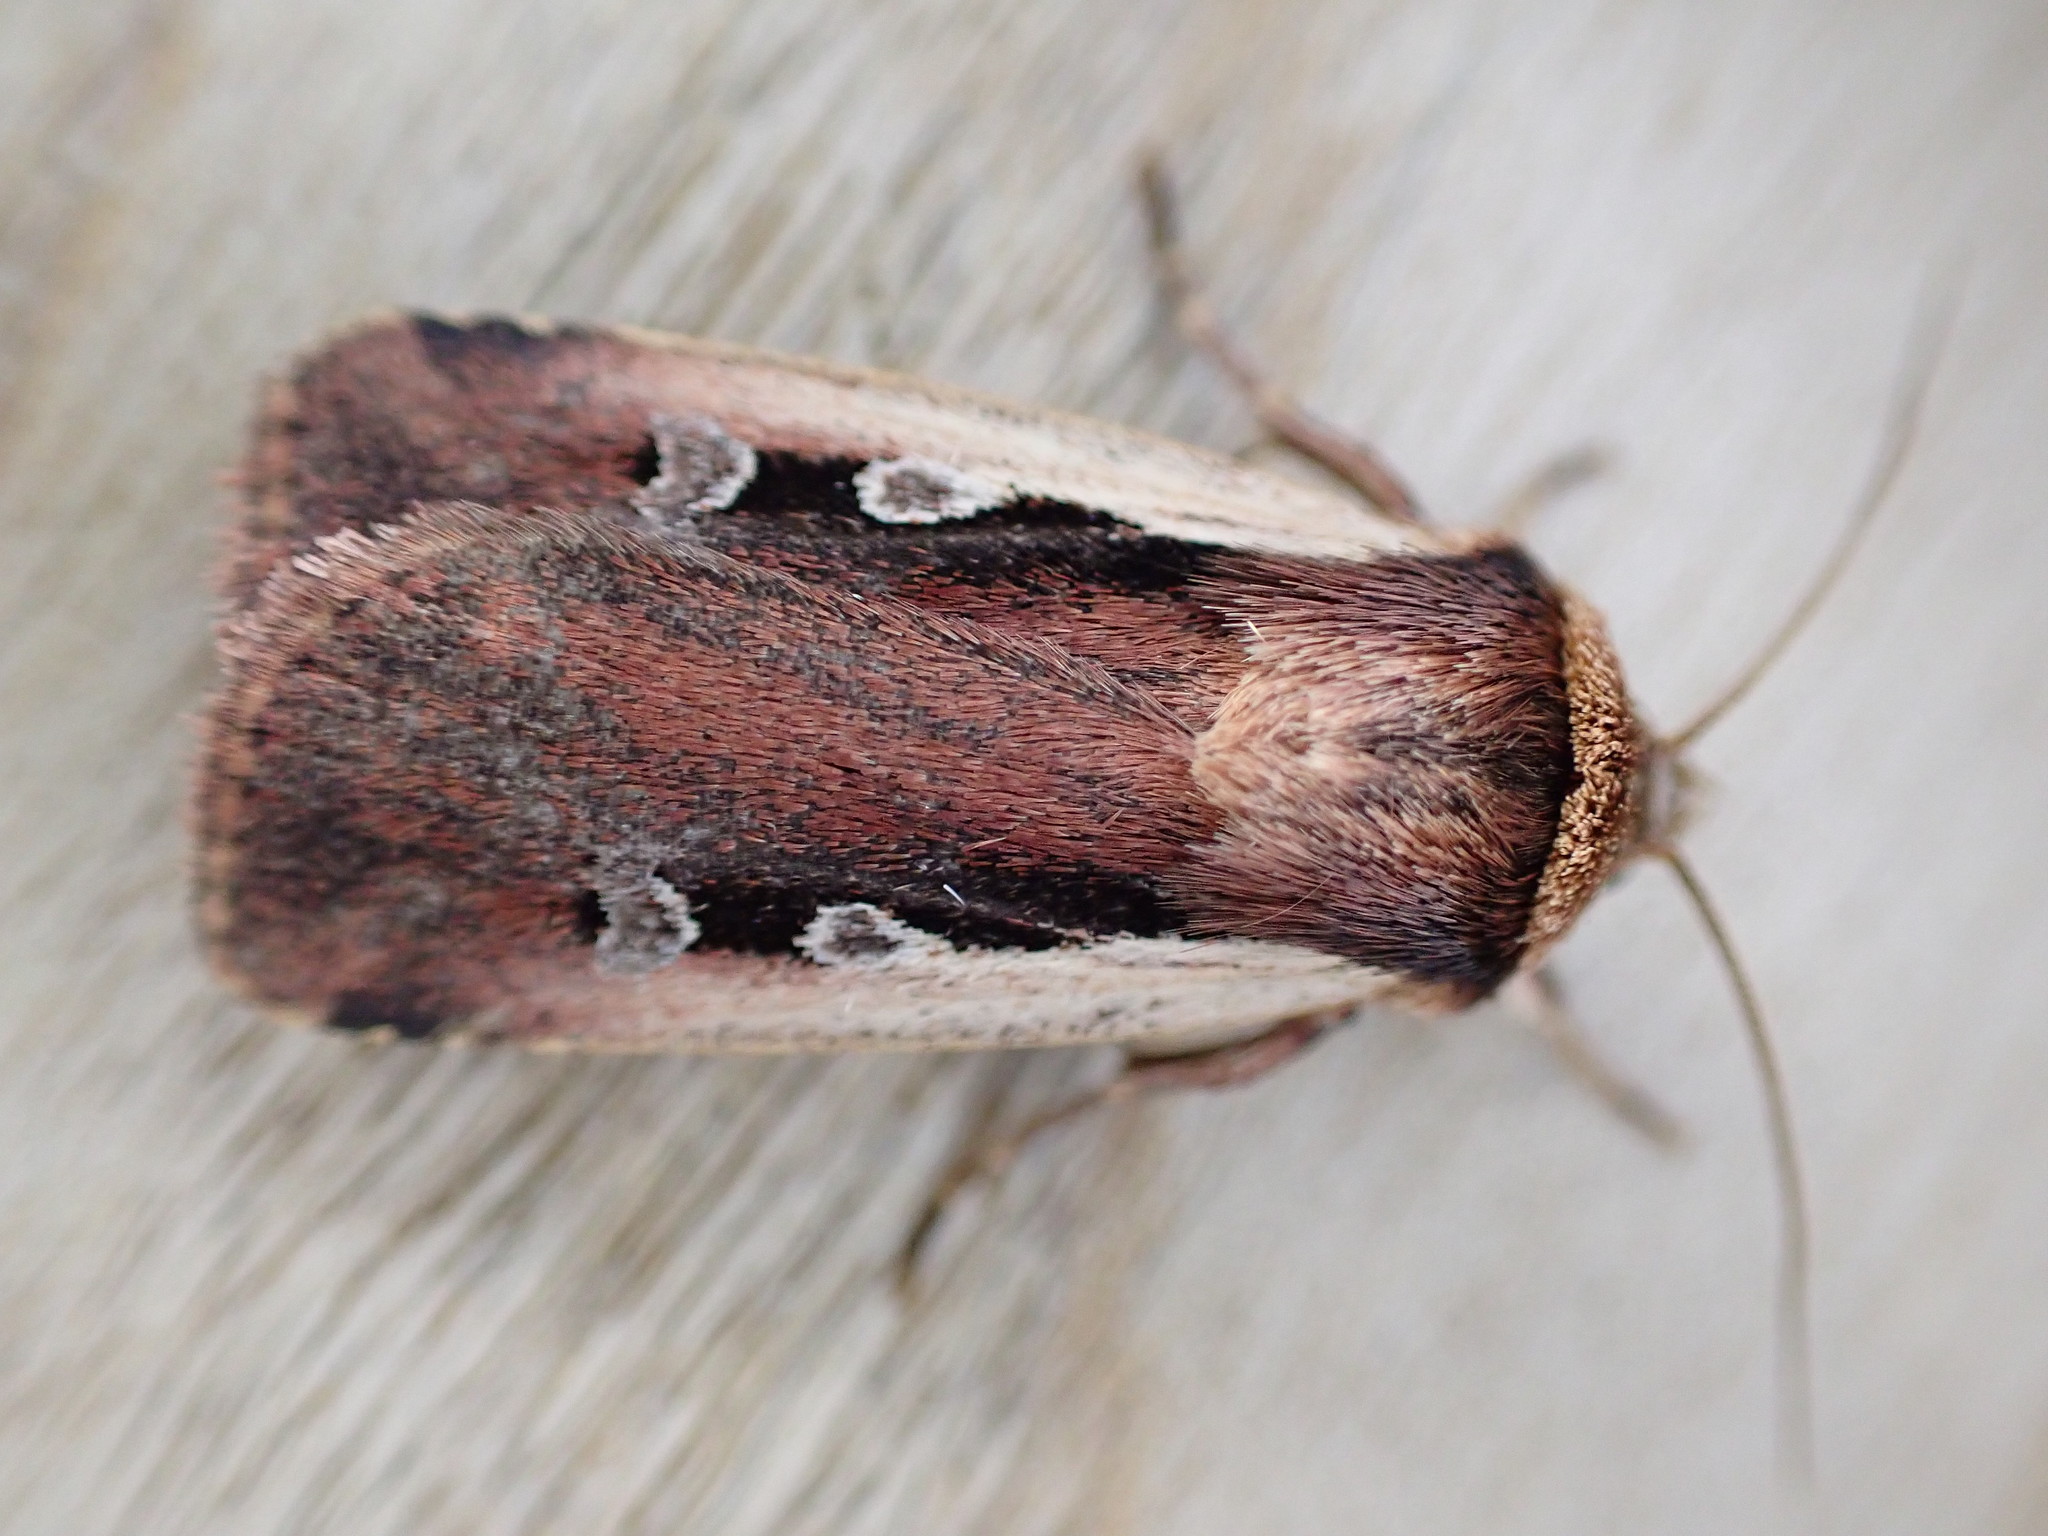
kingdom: Animalia
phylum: Arthropoda
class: Insecta
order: Lepidoptera
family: Noctuidae
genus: Ochropleura
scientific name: Ochropleura plecta
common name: Flame shoulder
